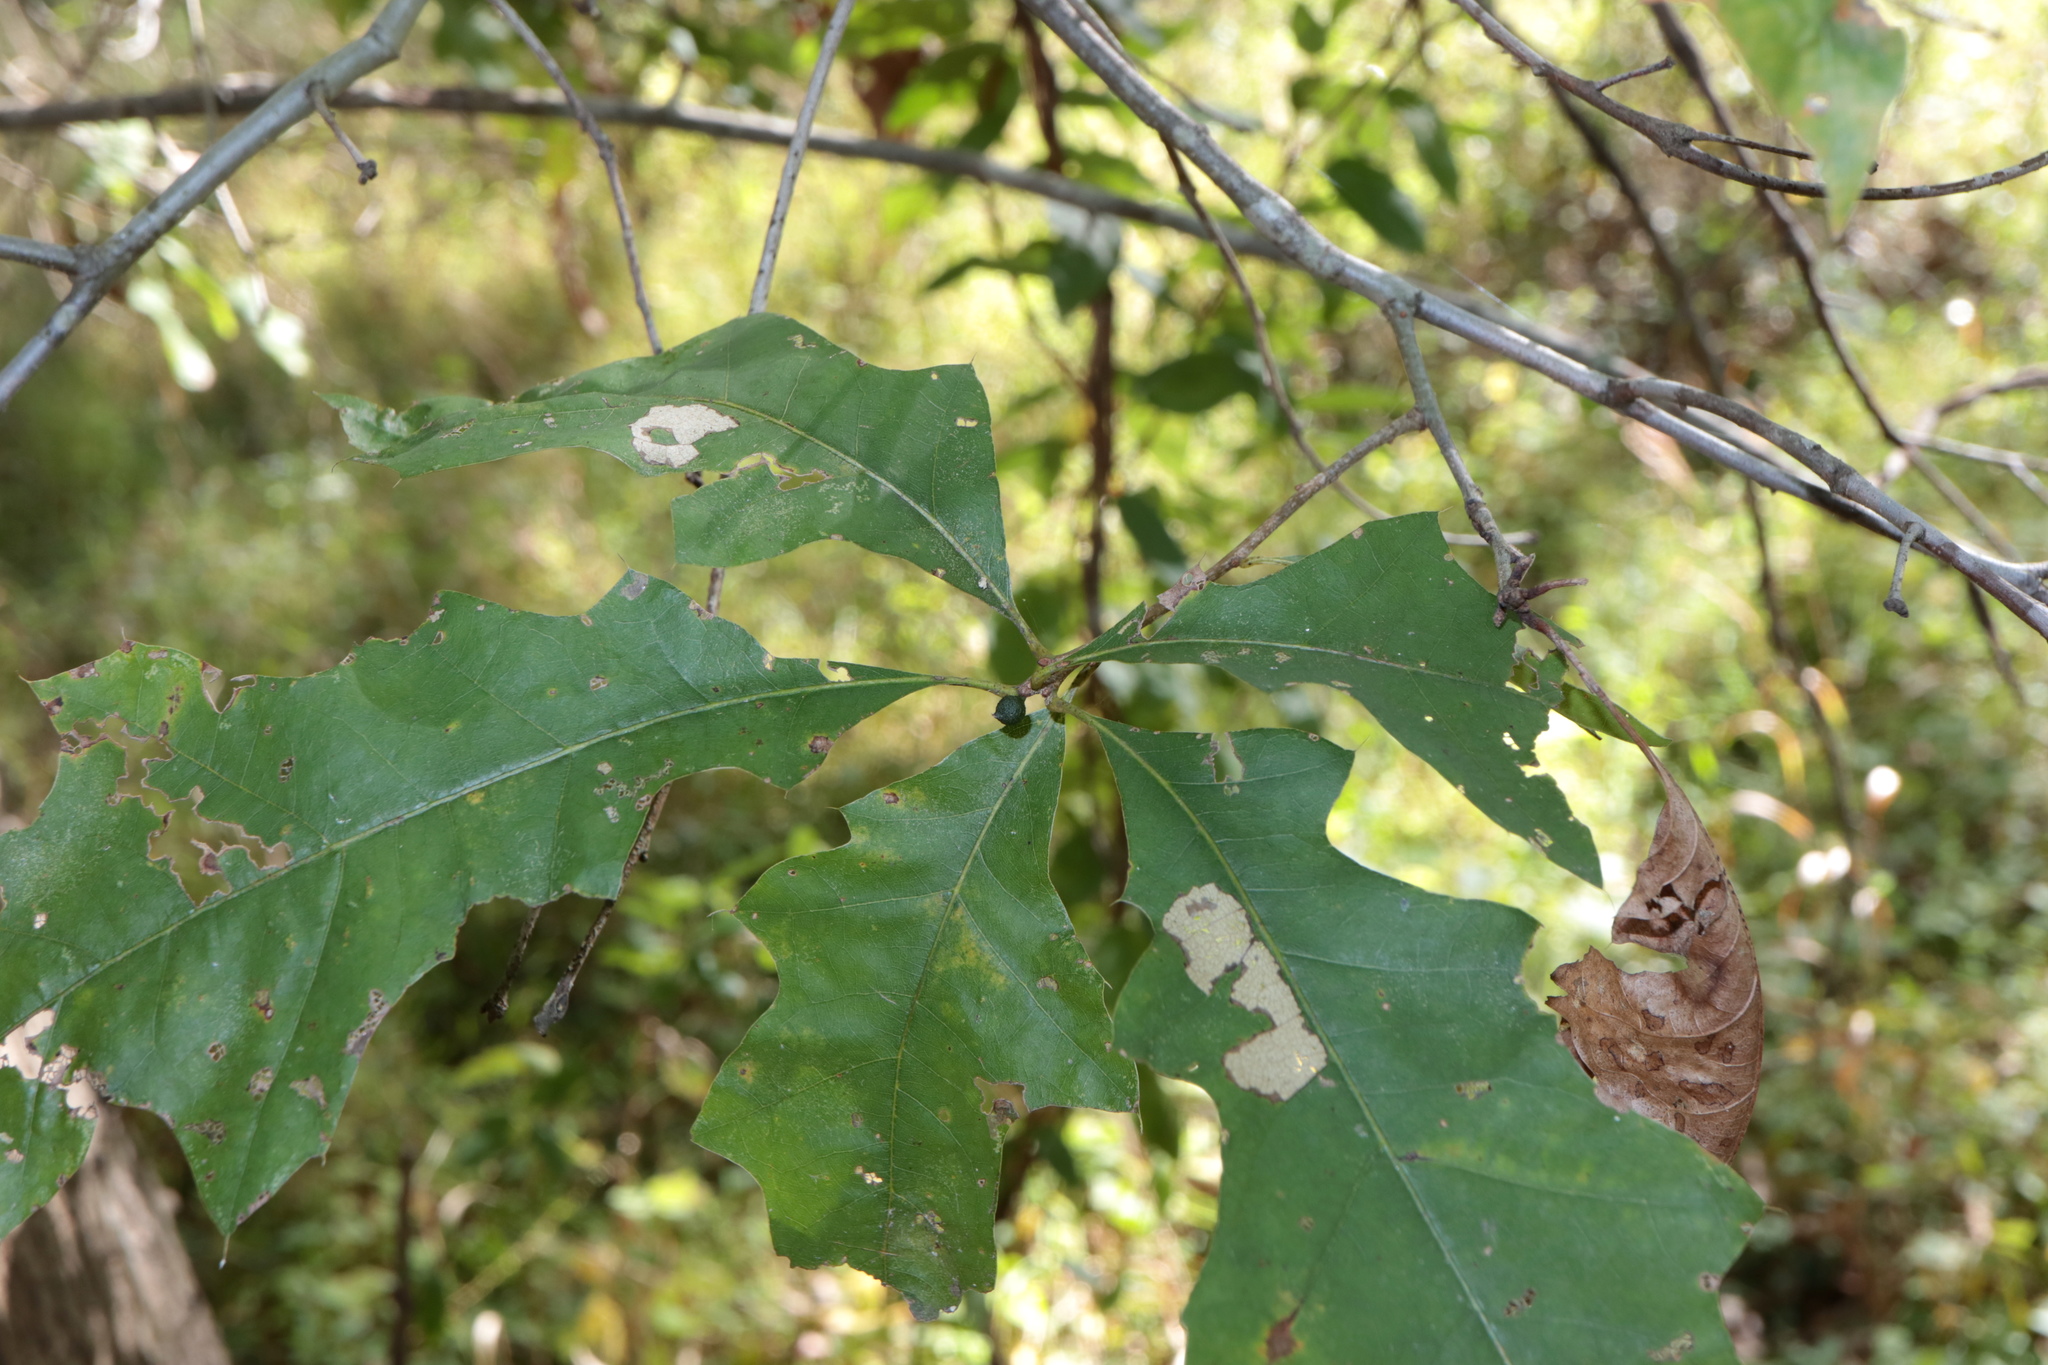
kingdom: Animalia
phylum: Arthropoda
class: Insecta
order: Hymenoptera
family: Cynipidae
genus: Callirhytis
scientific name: Callirhytis
